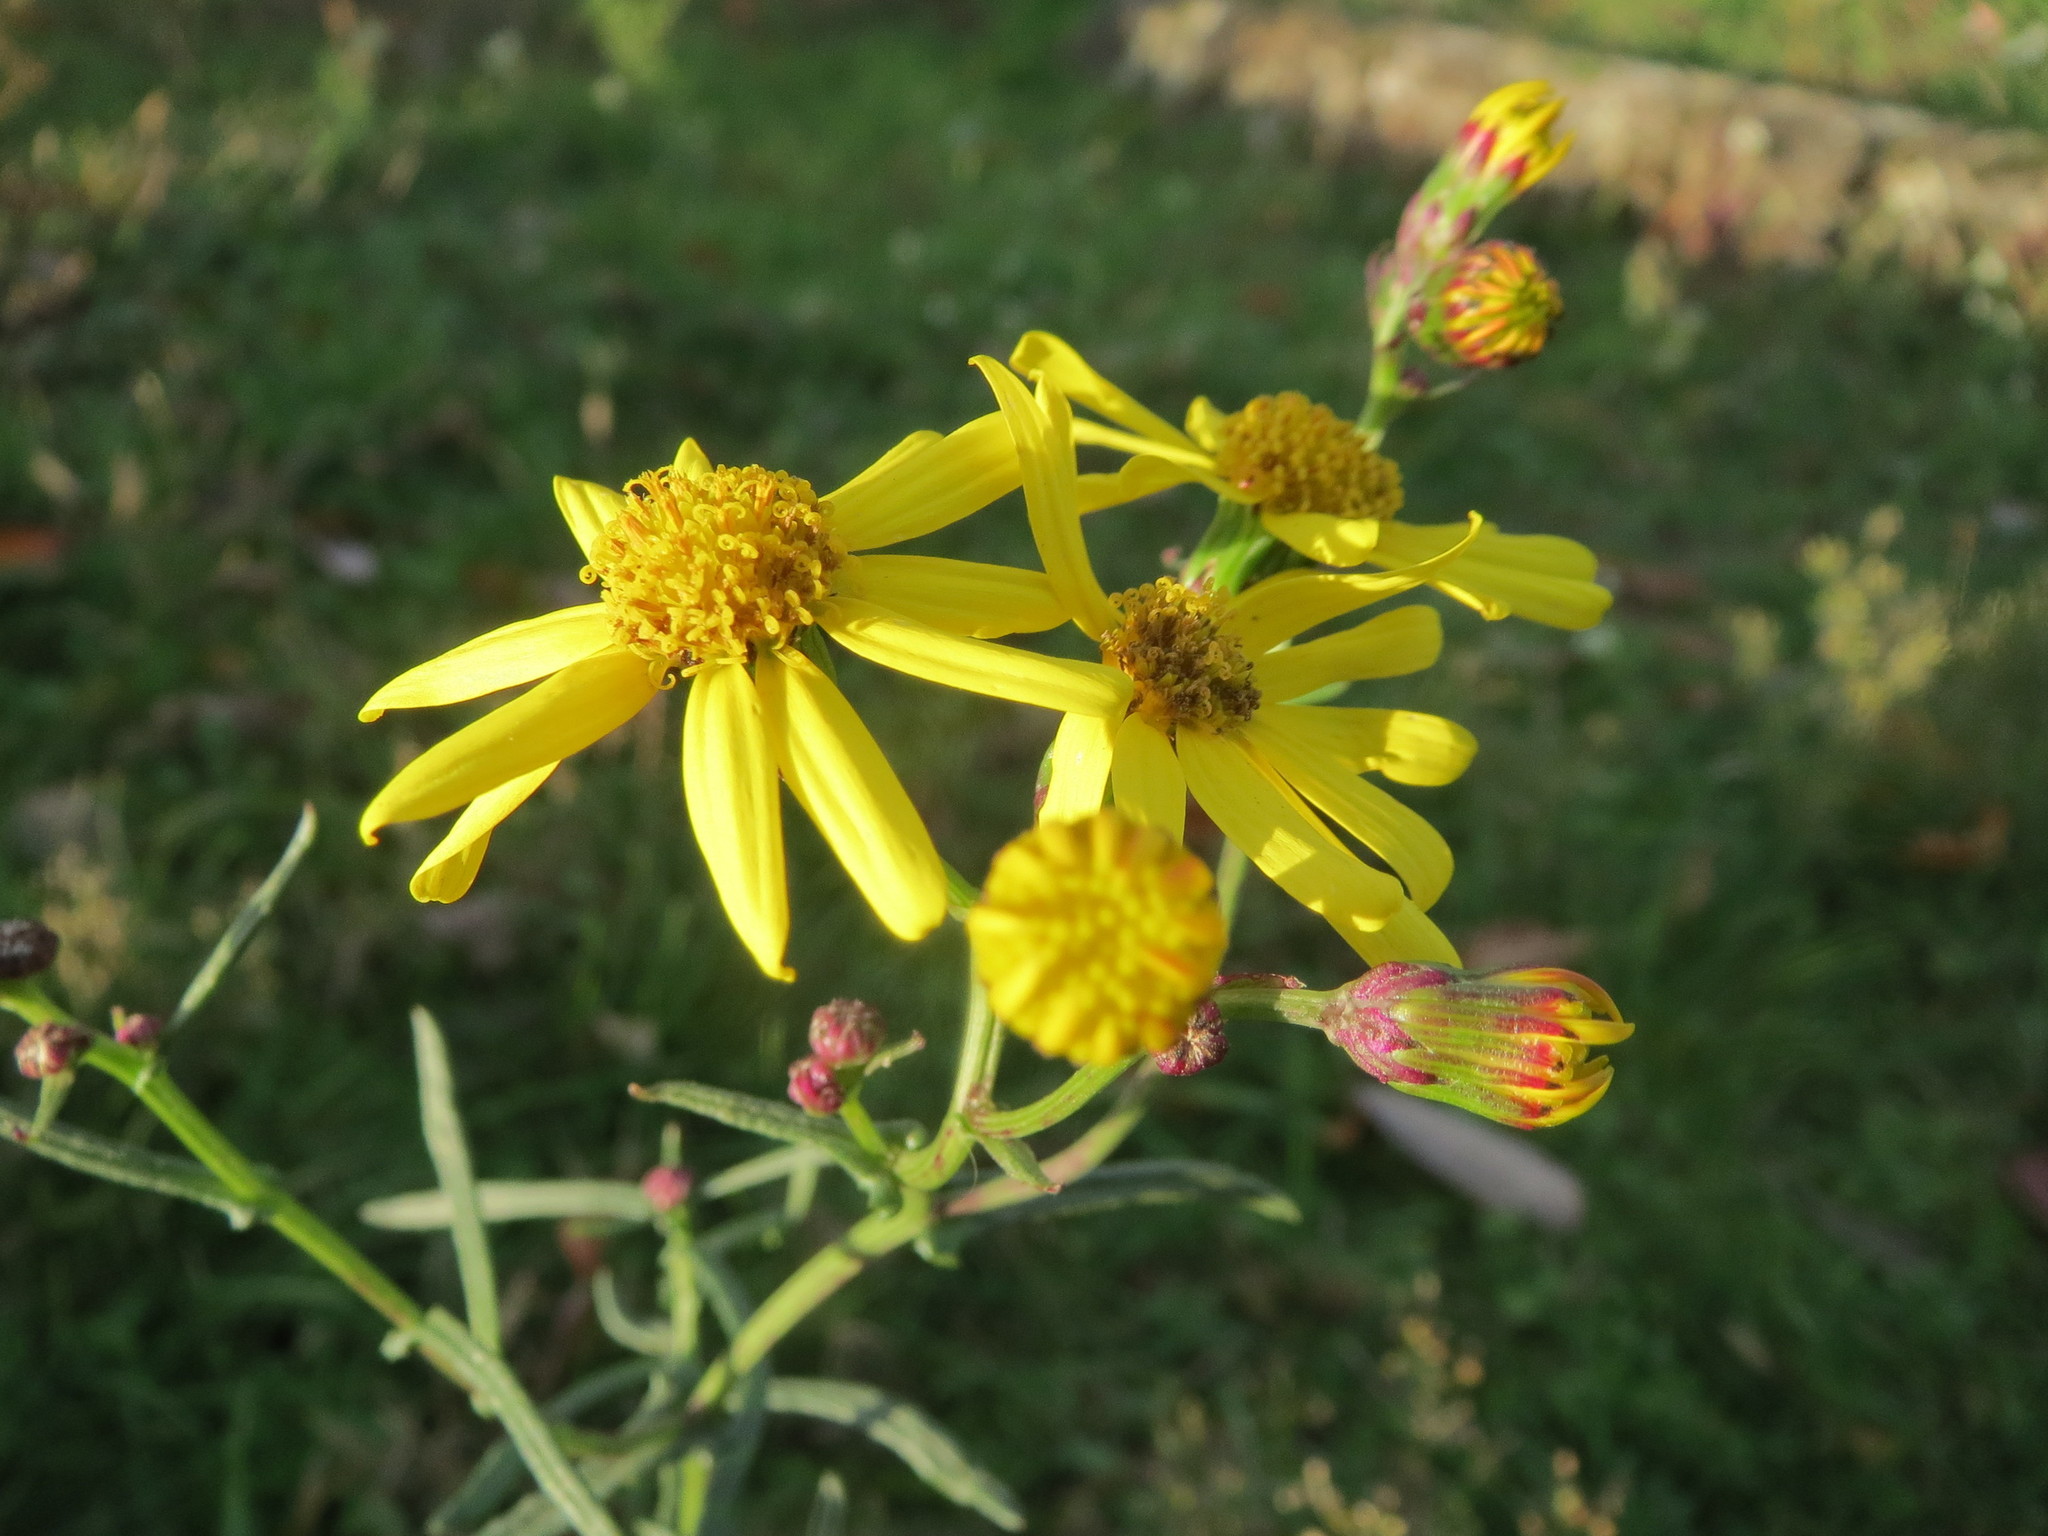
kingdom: Plantae
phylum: Tracheophyta
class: Magnoliopsida
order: Asterales
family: Asteraceae
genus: Senecio
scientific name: Senecio inaequidens
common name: Narrow-leaved ragwort
